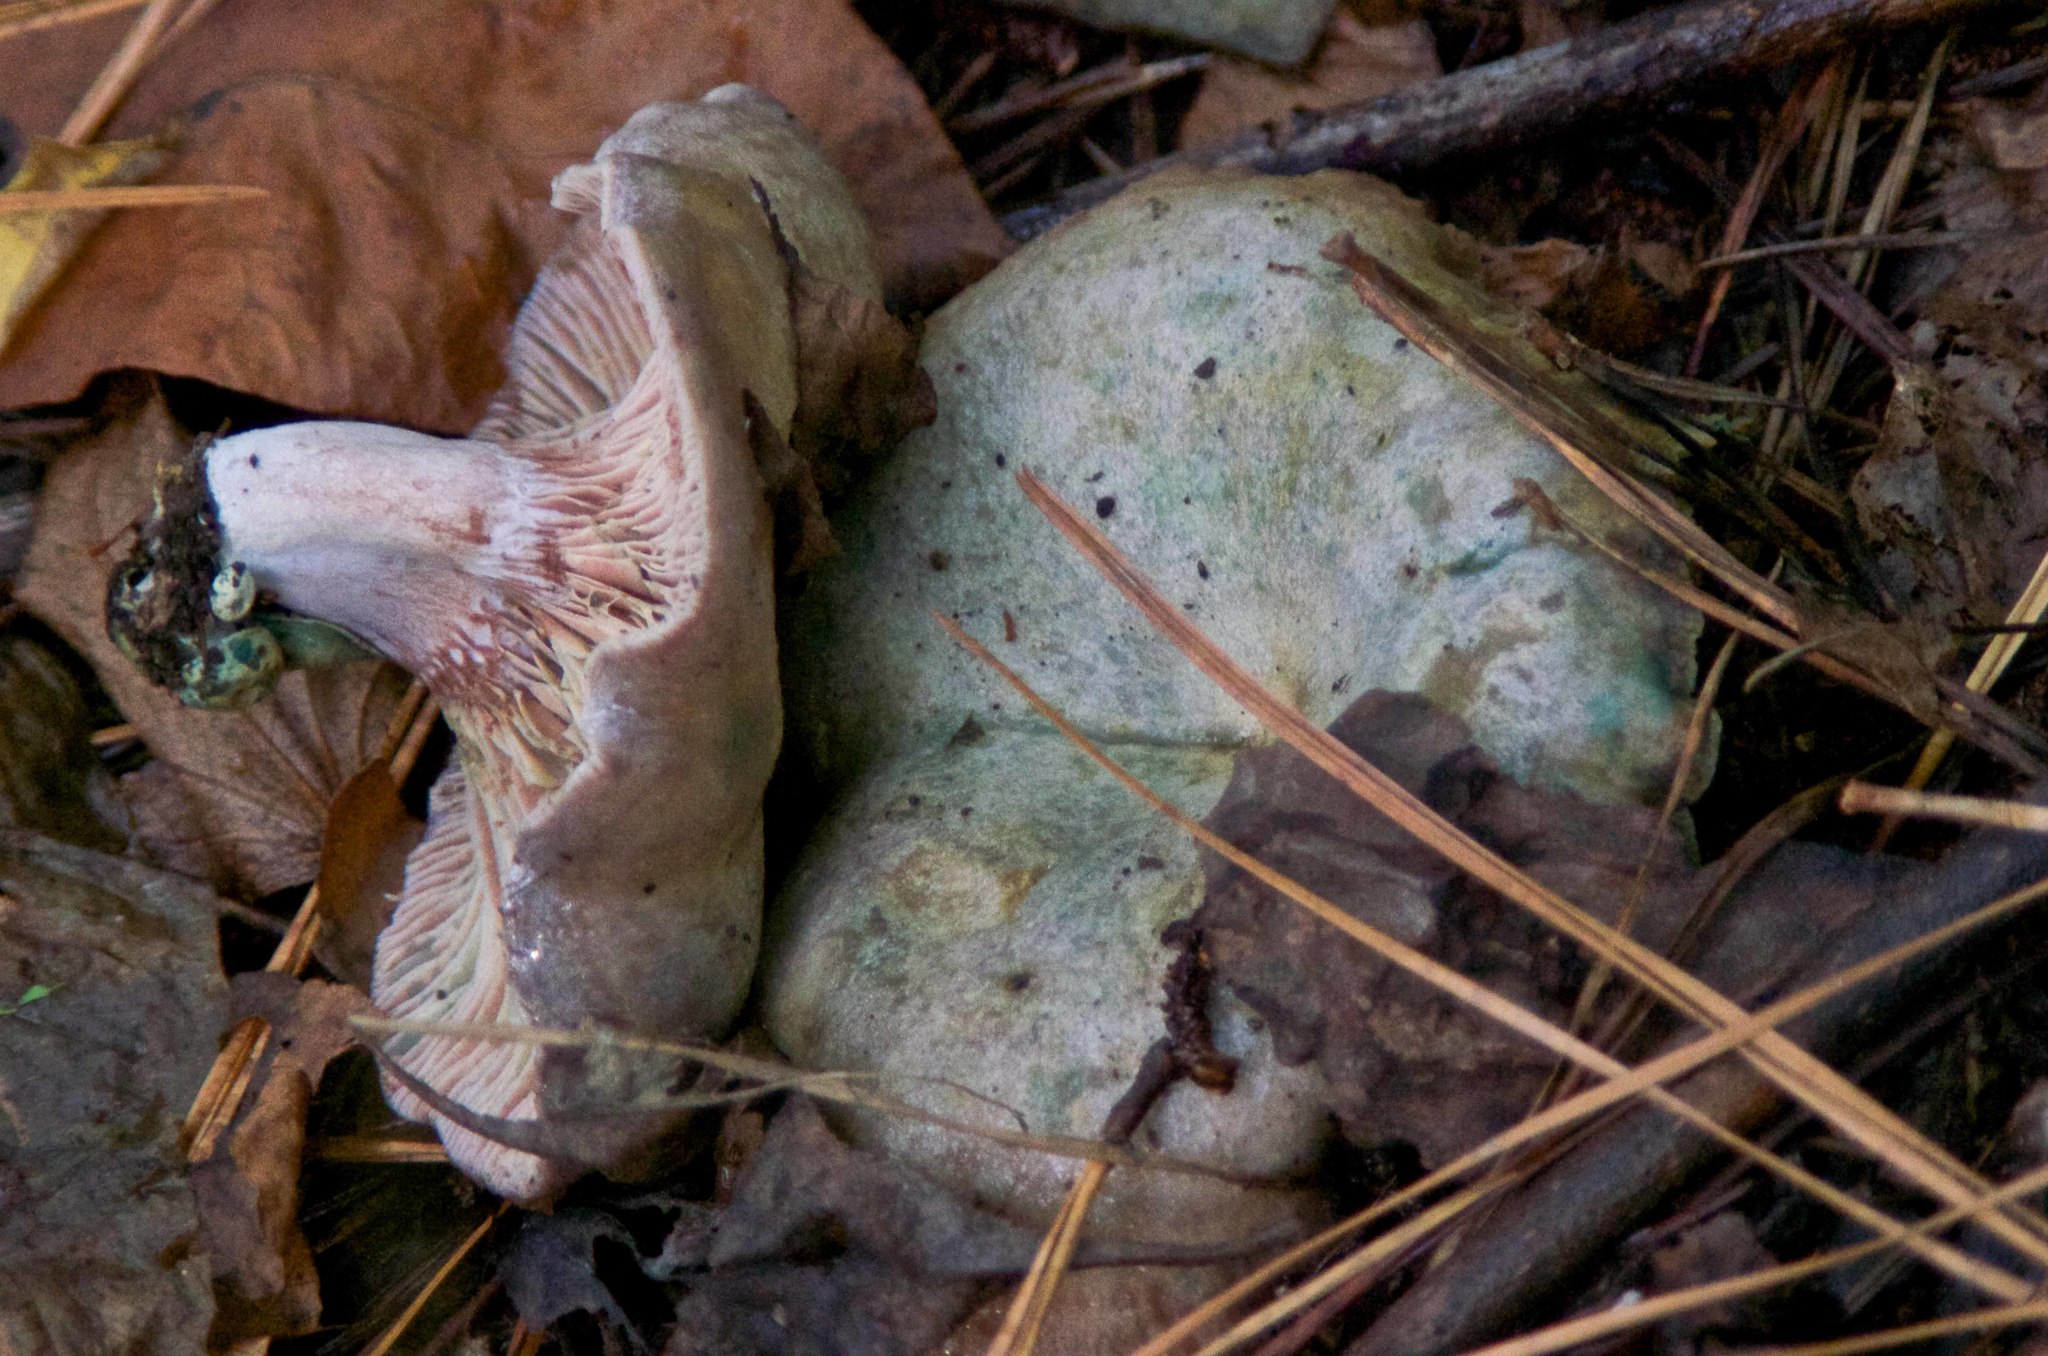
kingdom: Fungi
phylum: Basidiomycota
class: Agaricomycetes
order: Russulales
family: Russulaceae
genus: Lactarius
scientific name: Lactarius paradoxus
